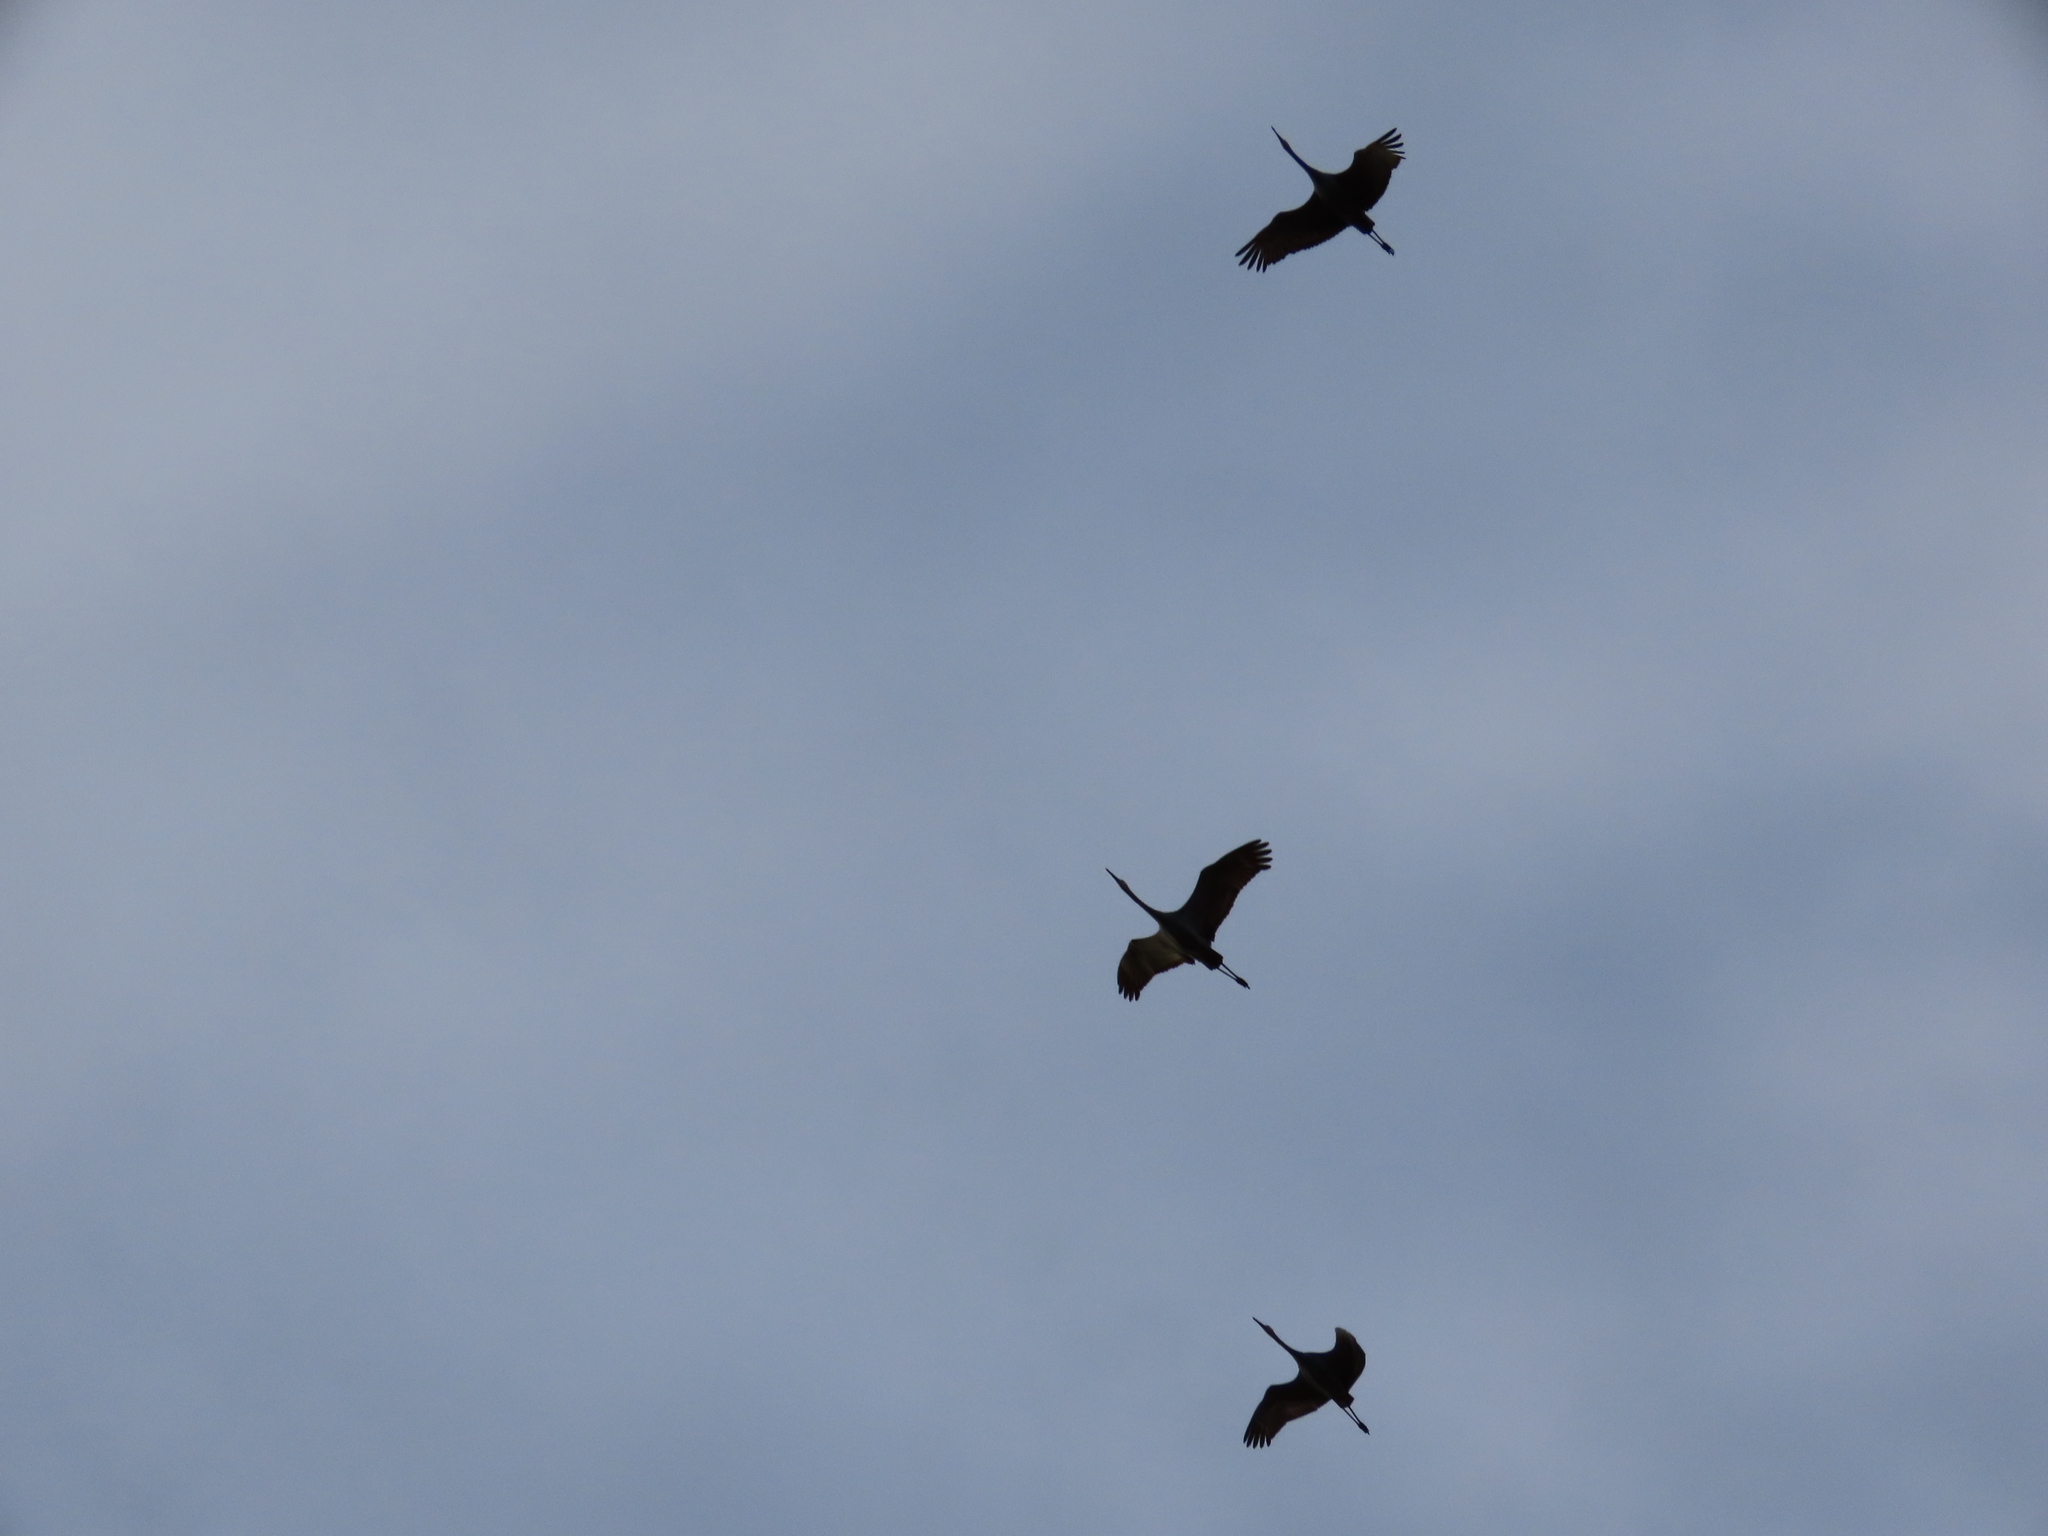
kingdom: Animalia
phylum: Chordata
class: Aves
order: Gruiformes
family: Gruidae
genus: Grus
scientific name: Grus canadensis
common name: Sandhill crane
